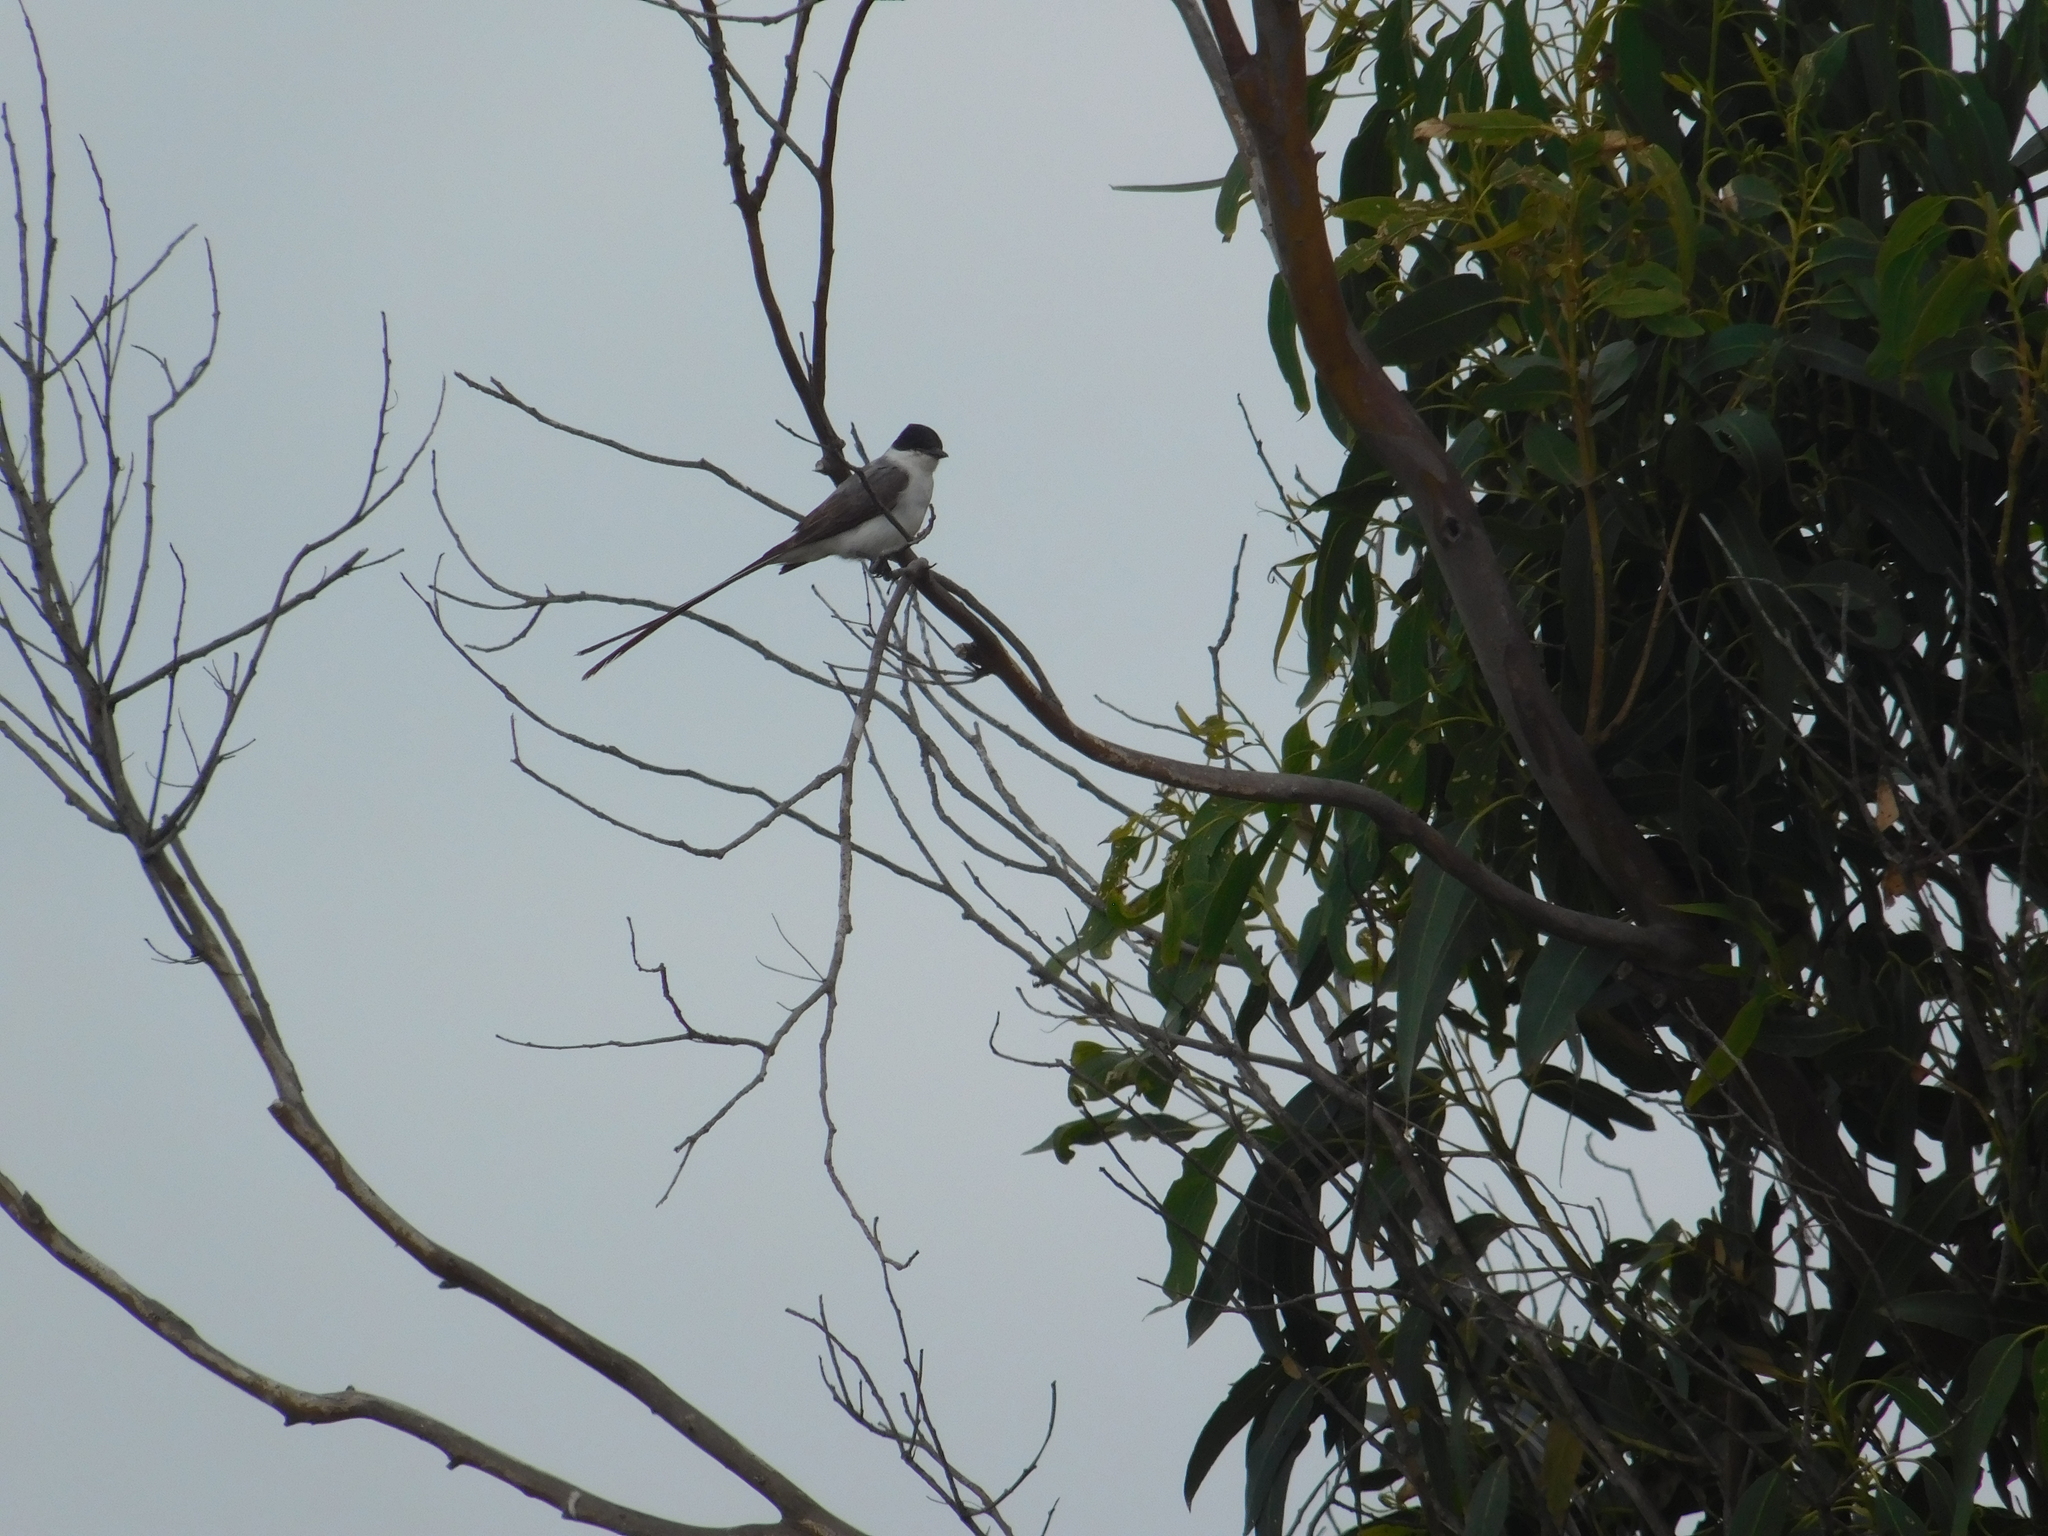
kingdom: Animalia
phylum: Chordata
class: Aves
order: Passeriformes
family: Tyrannidae
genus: Tyrannus
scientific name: Tyrannus savana
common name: Fork-tailed flycatcher
